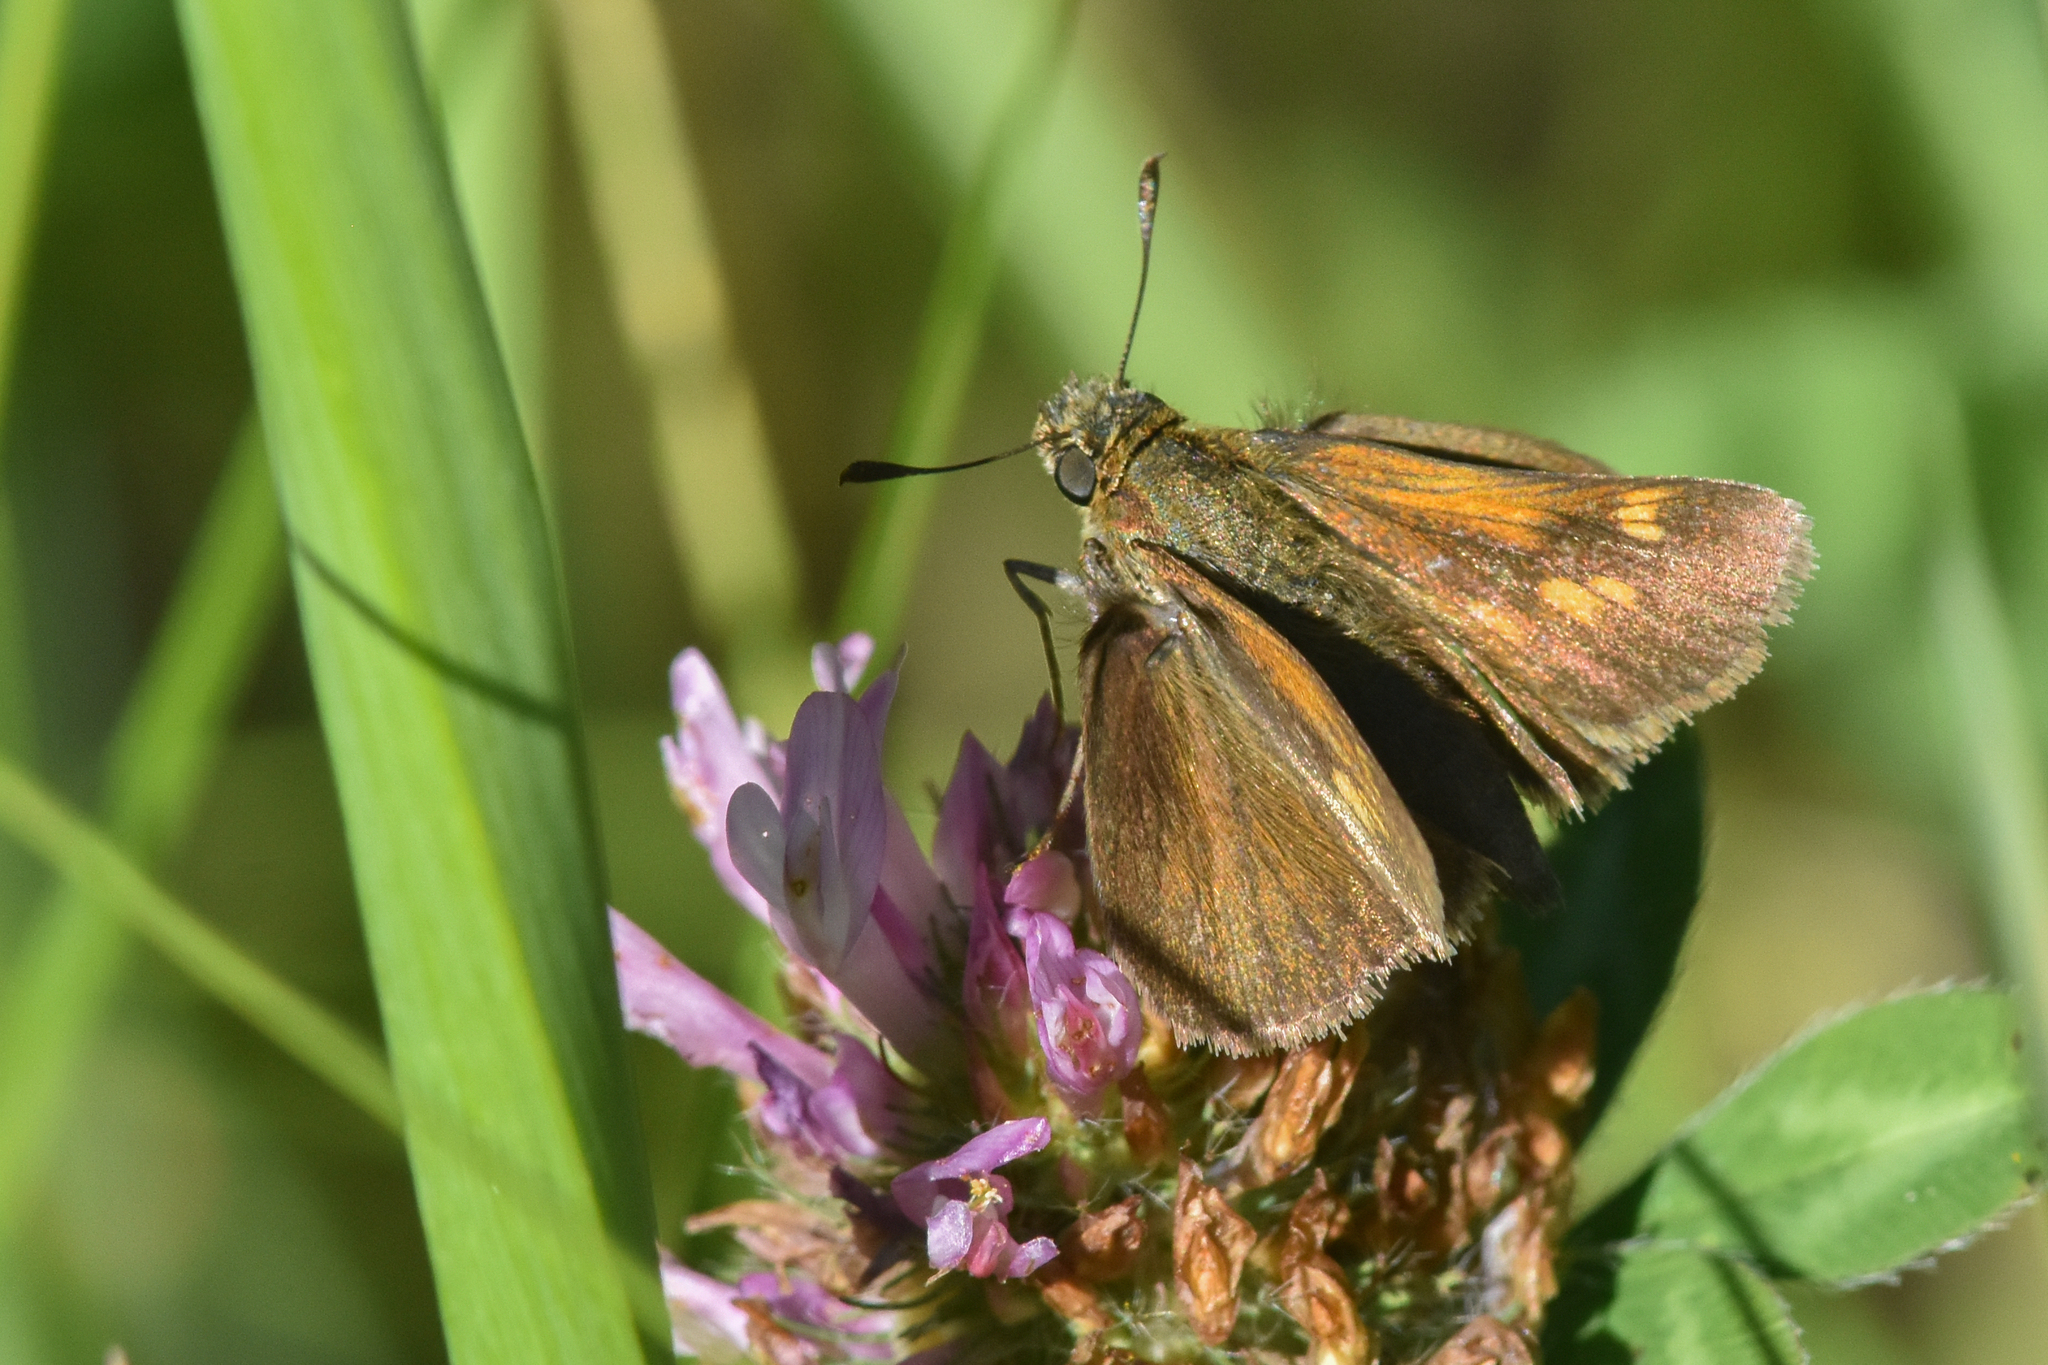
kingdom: Animalia
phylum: Arthropoda
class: Insecta
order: Lepidoptera
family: Hesperiidae
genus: Polites
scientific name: Polites themistocles
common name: Tawny-edged skipper
